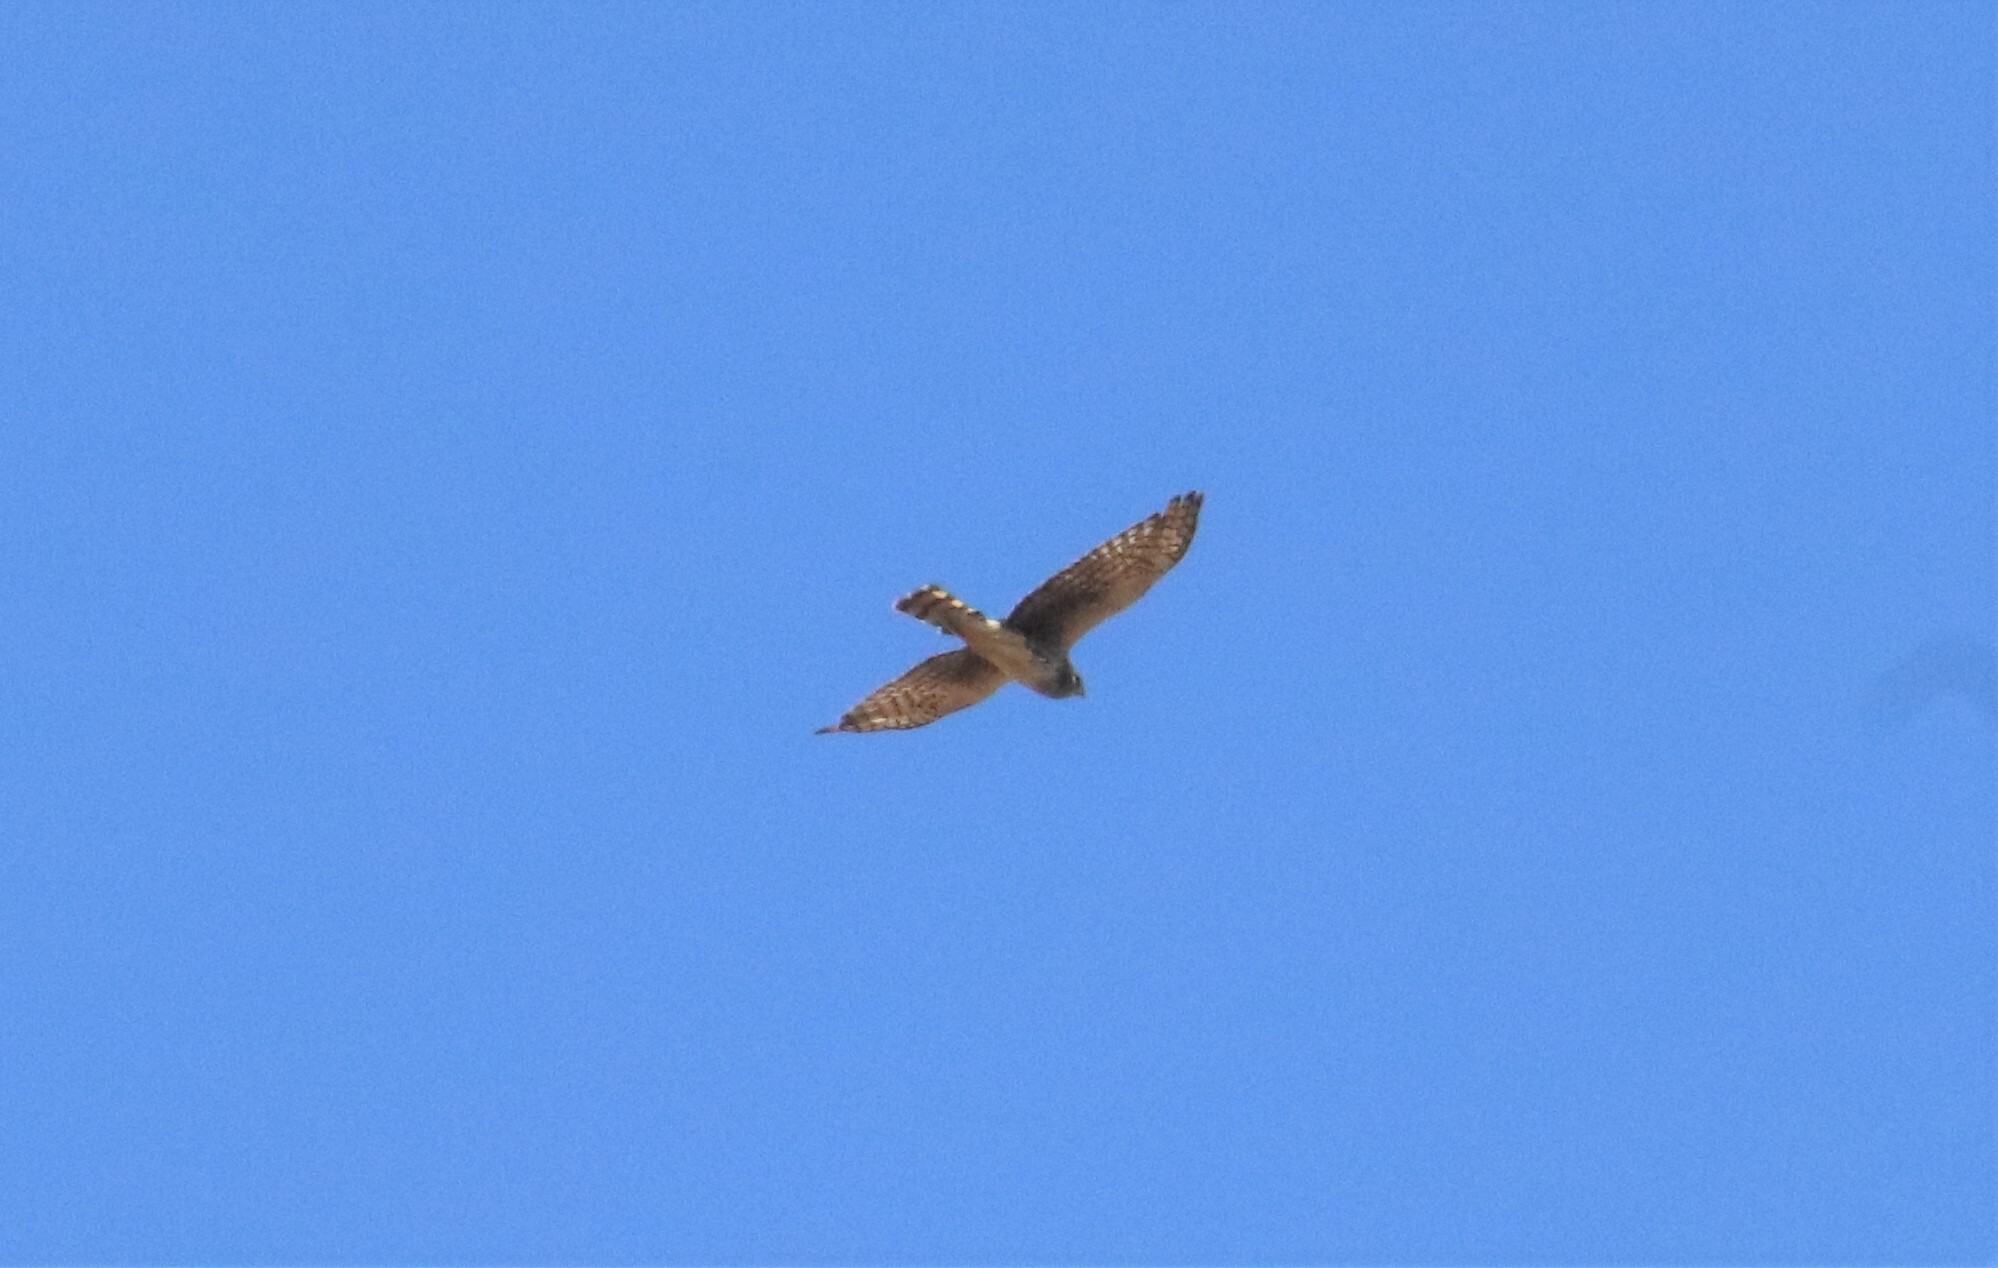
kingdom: Animalia
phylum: Chordata
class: Aves
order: Accipitriformes
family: Accipitridae
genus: Circus
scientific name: Circus cyaneus
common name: Hen harrier
